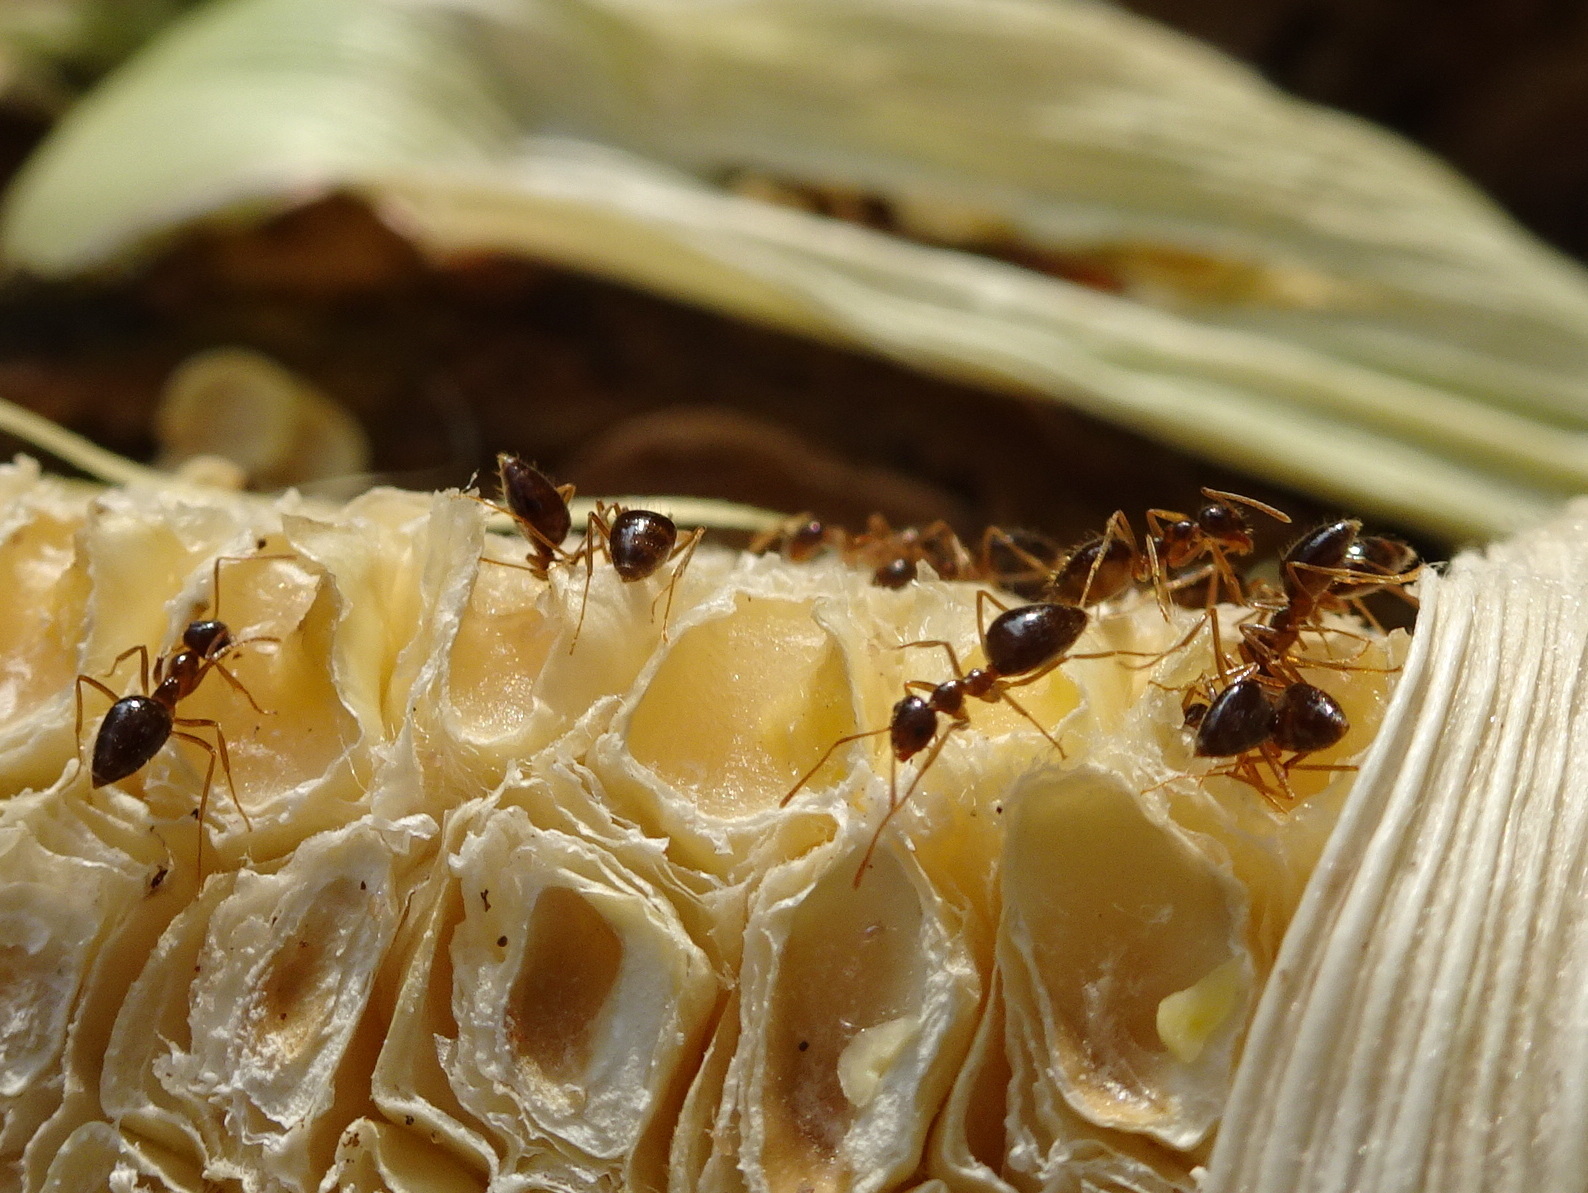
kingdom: Animalia
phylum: Arthropoda
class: Insecta
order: Hymenoptera
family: Formicidae
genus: Prenolepis
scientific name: Prenolepis imparis
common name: Small honey ant
